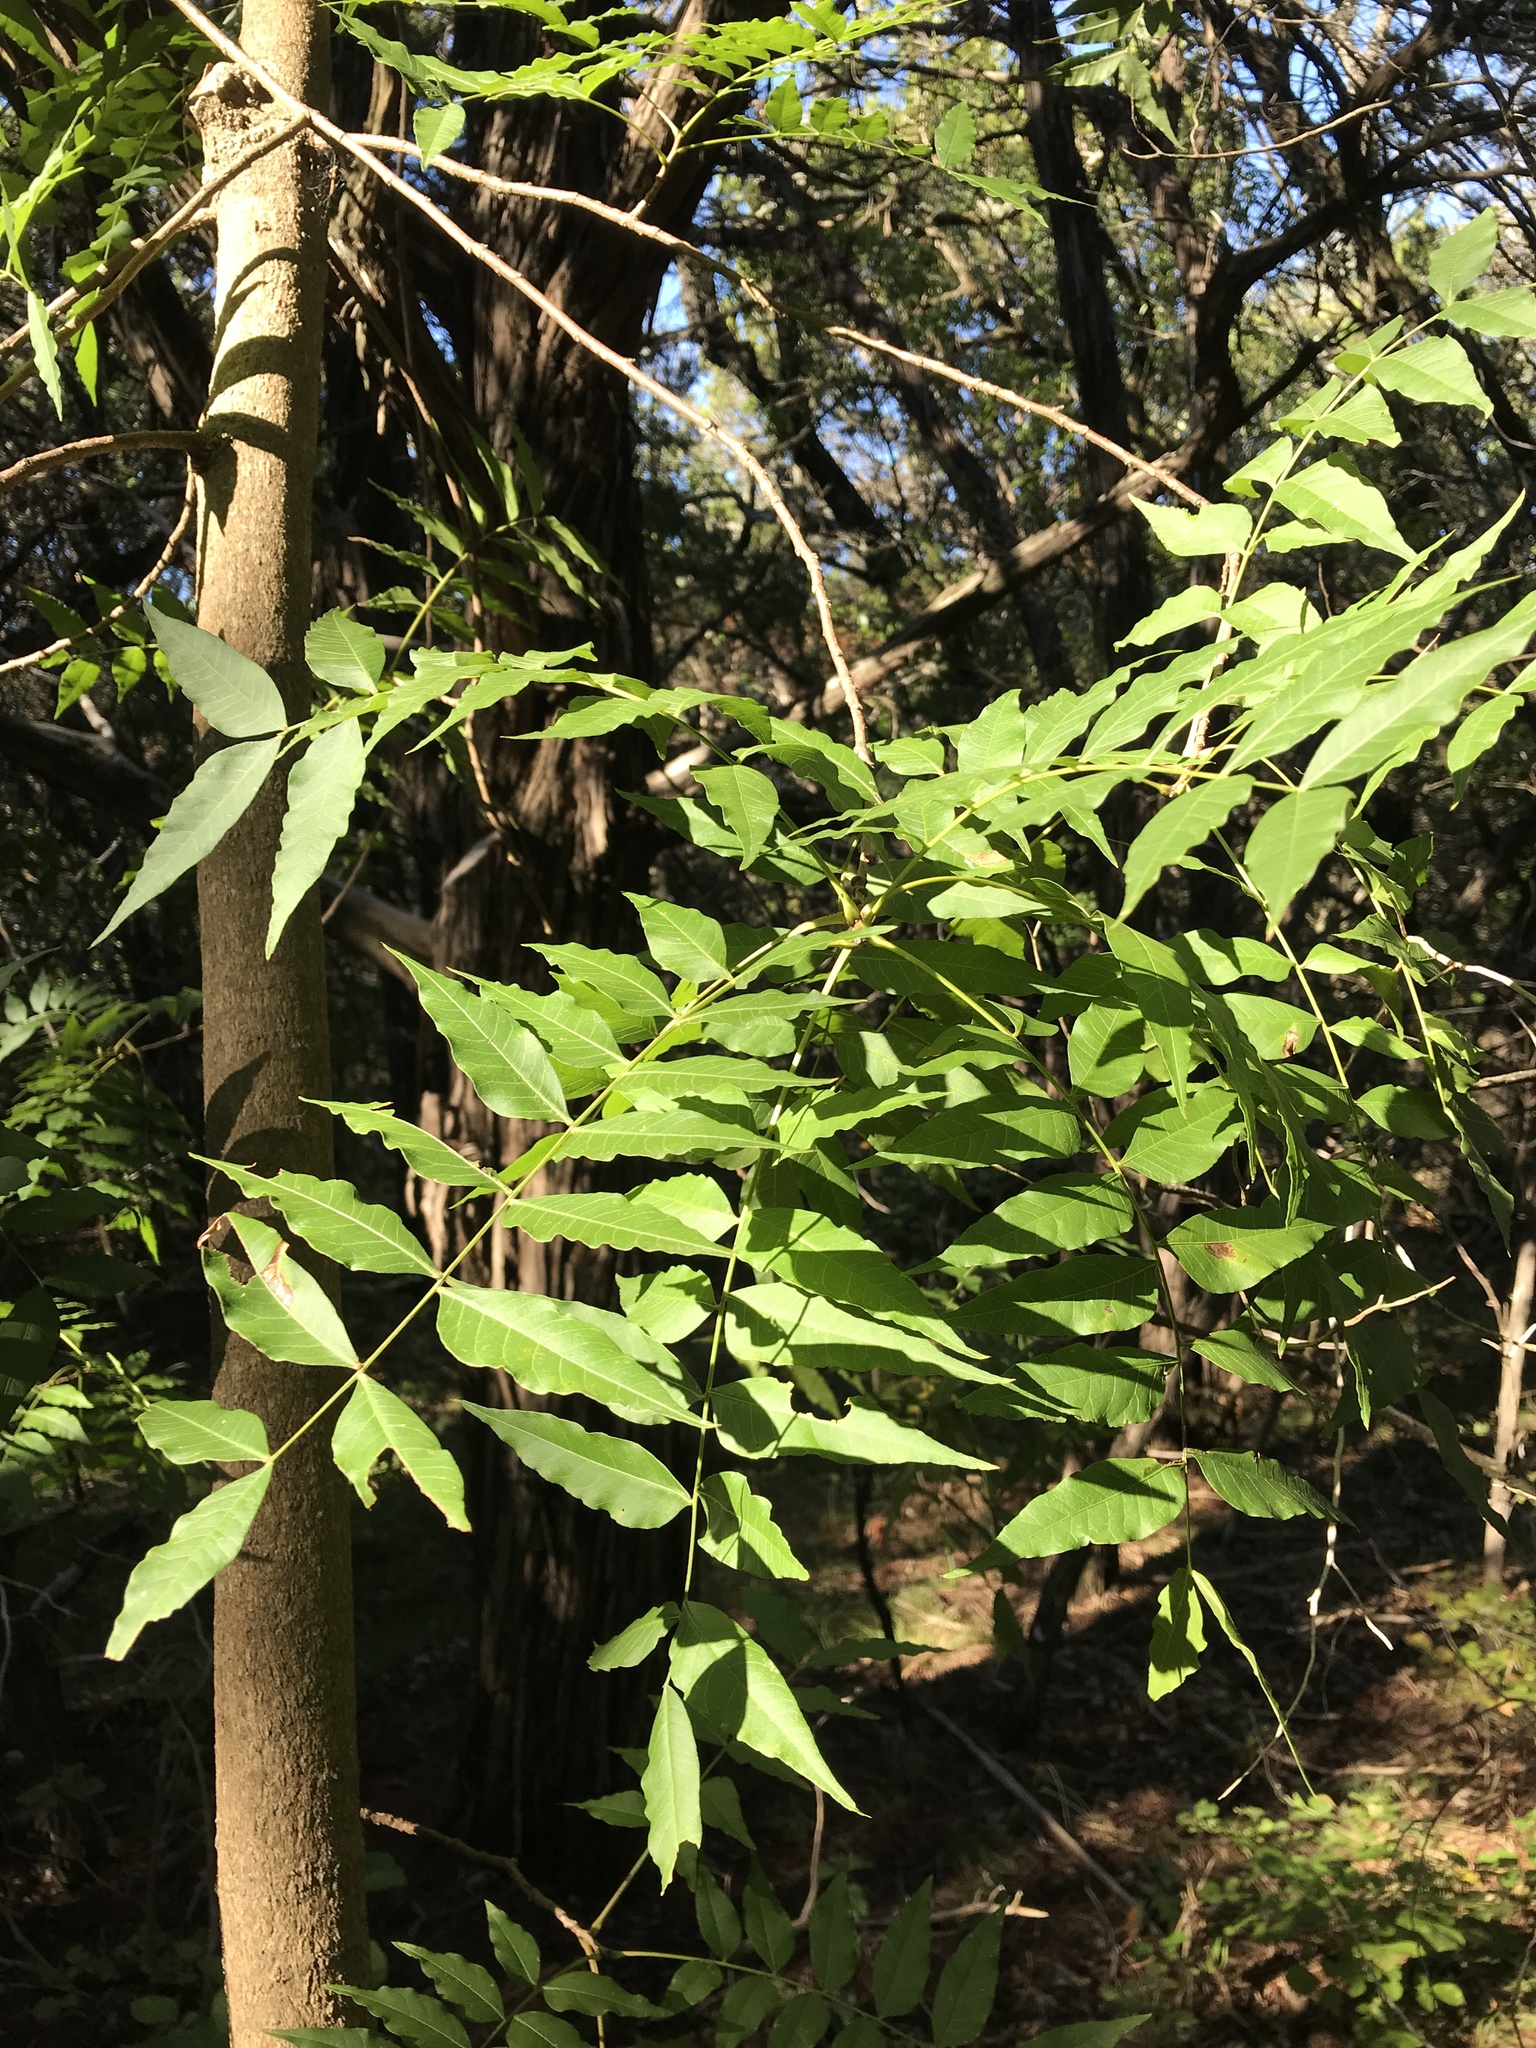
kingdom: Plantae
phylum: Tracheophyta
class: Magnoliopsida
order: Sapindales
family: Anacardiaceae
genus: Pistacia
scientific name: Pistacia chinensis
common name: Chinese pistache
